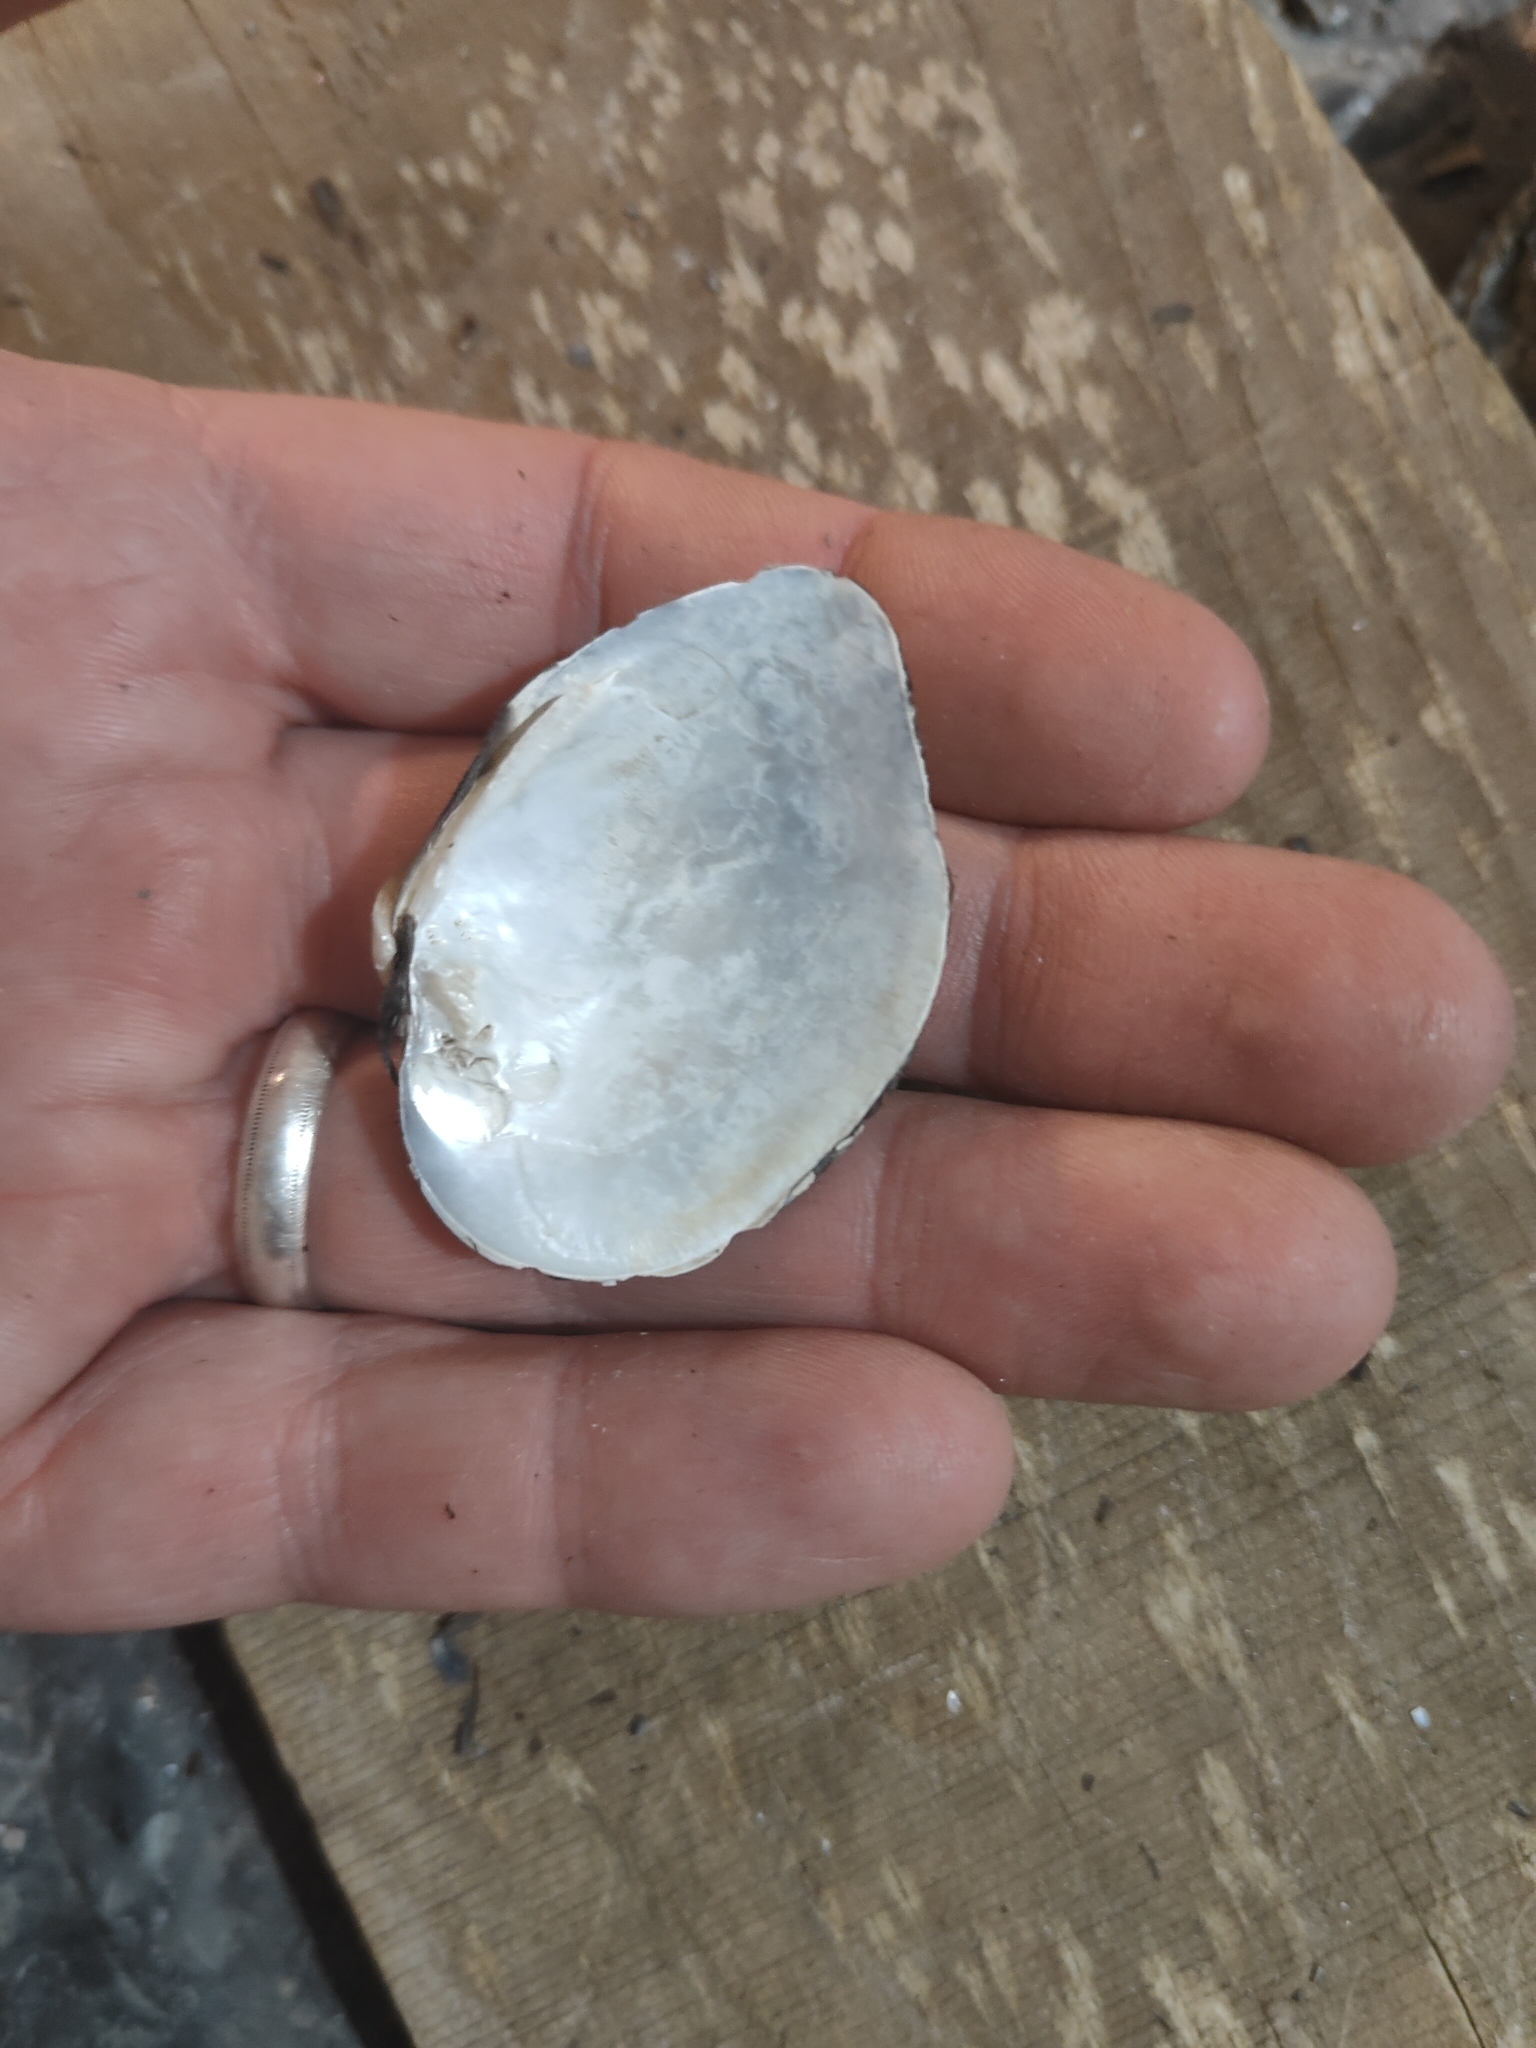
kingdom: Animalia
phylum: Mollusca
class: Bivalvia
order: Unionida
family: Unionidae
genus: Truncilla
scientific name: Truncilla truncata
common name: Deertoe
